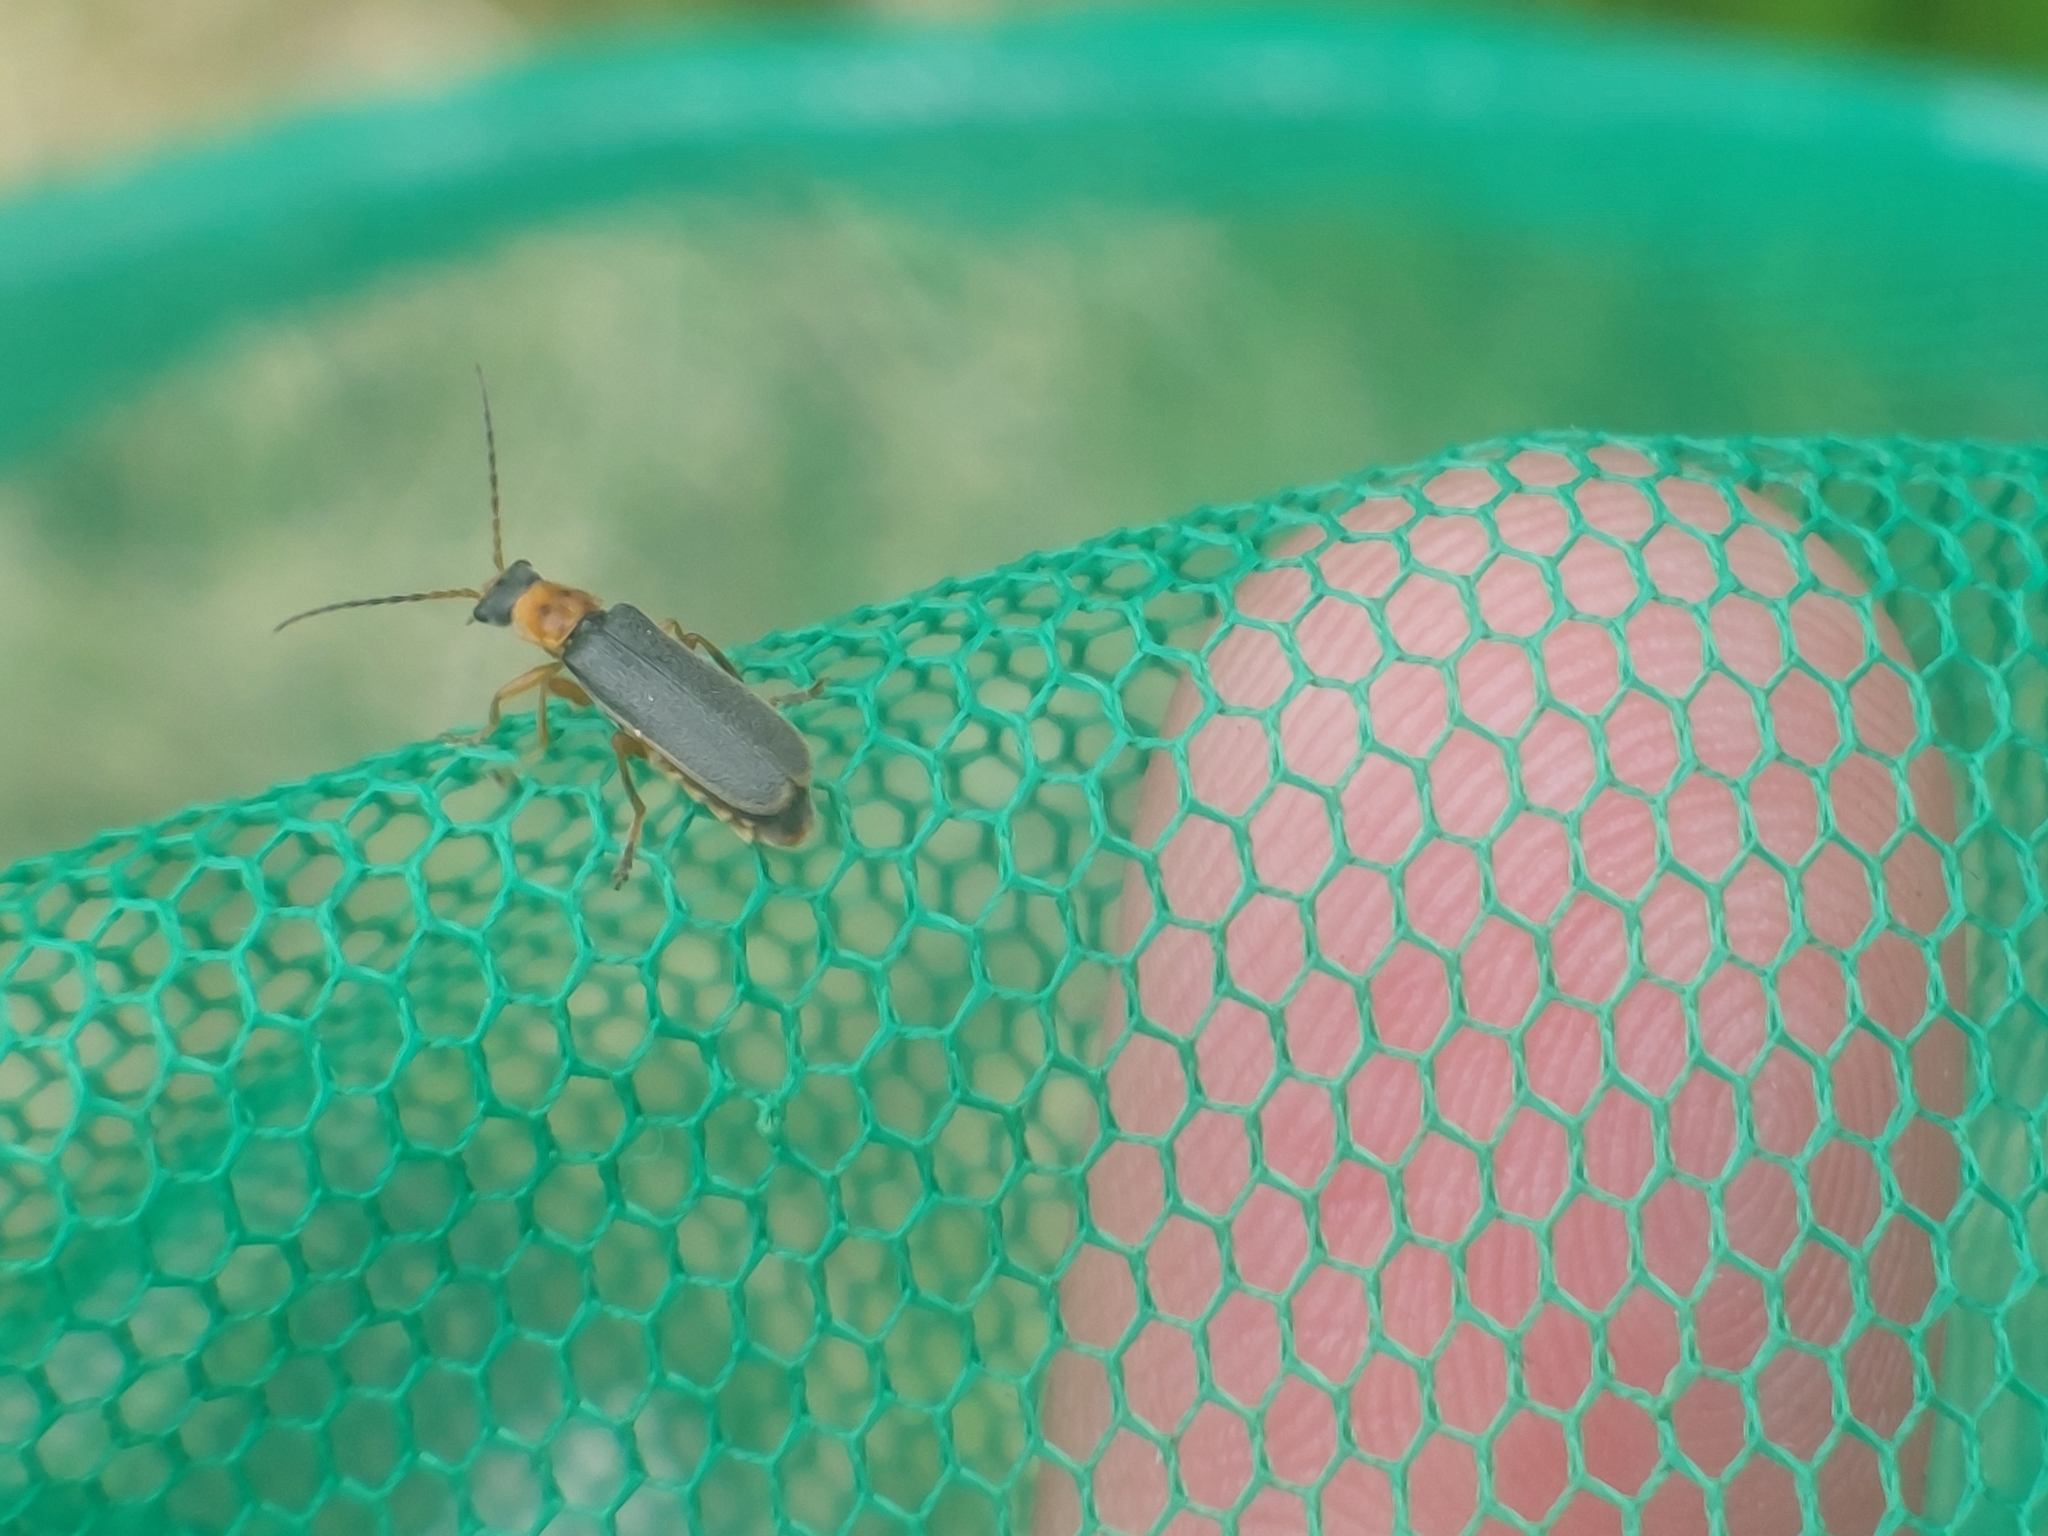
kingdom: Animalia
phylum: Arthropoda
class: Insecta
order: Coleoptera
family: Cantharidae
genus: Cantharis
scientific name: Cantharis lateralis
